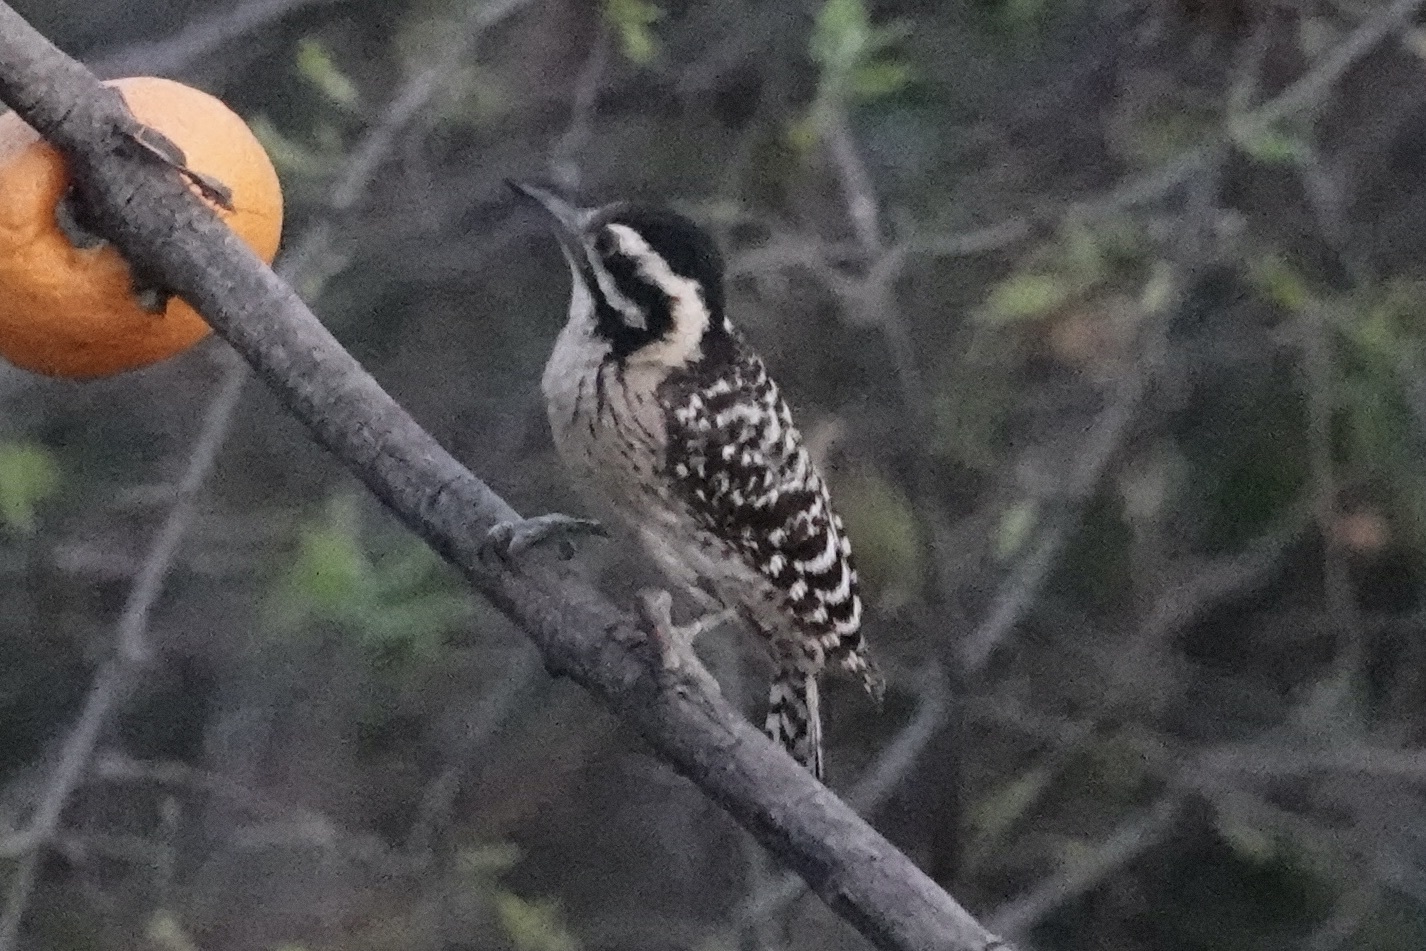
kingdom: Animalia
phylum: Chordata
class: Aves
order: Piciformes
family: Picidae
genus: Dryobates
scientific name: Dryobates scalaris
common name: Ladder-backed woodpecker
